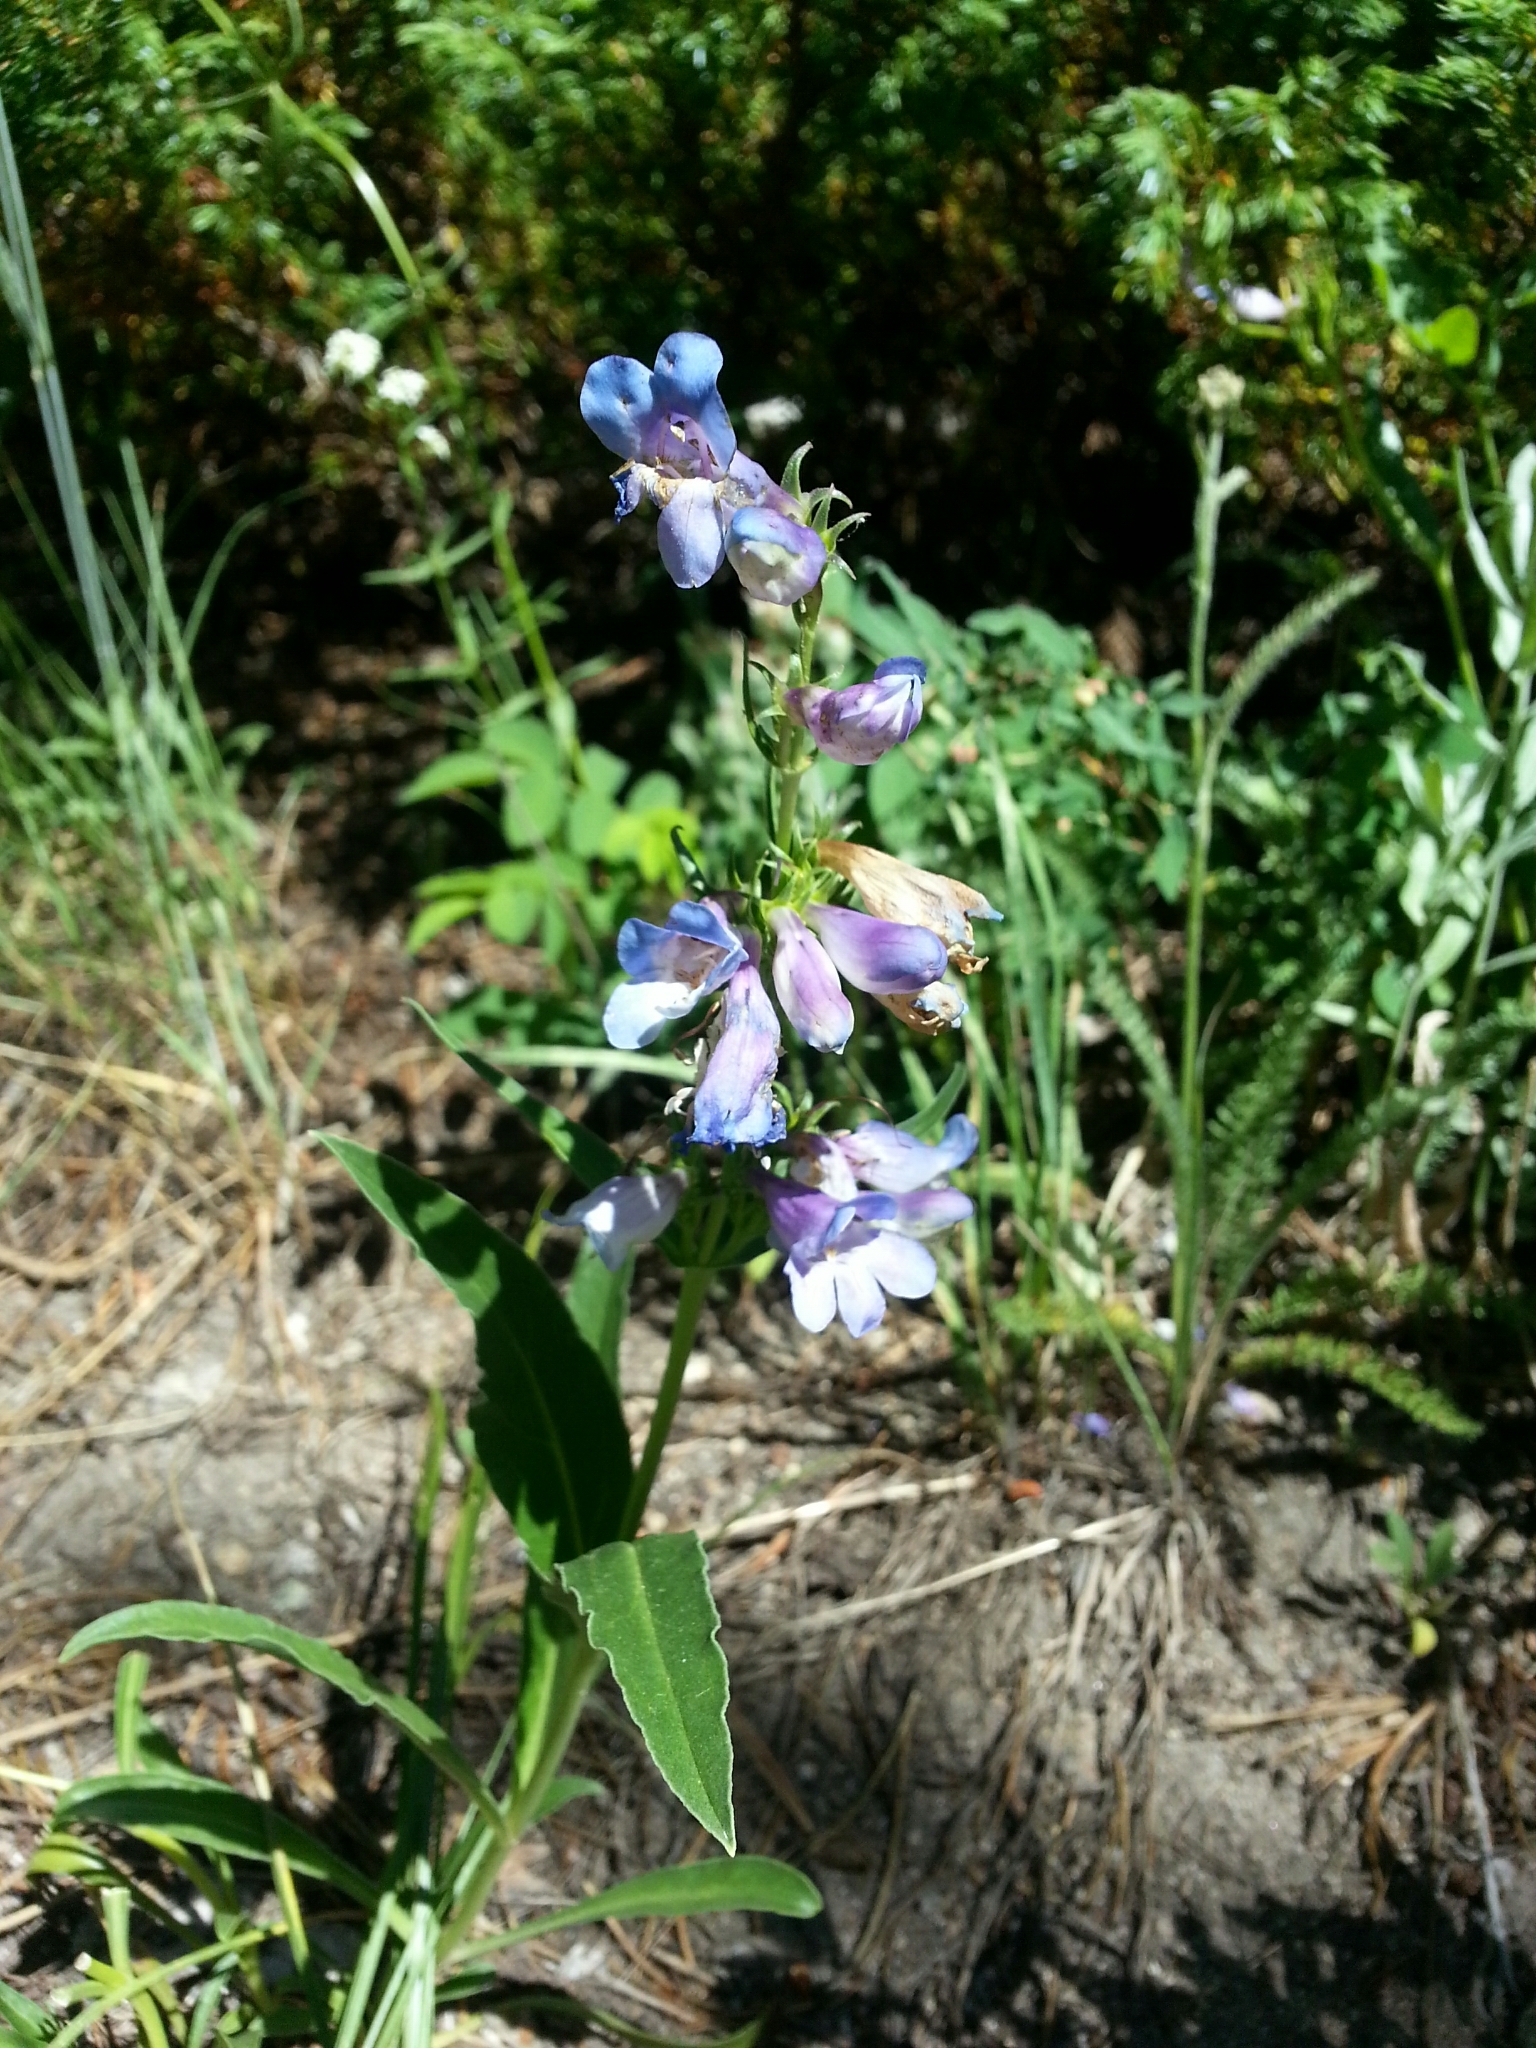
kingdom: Plantae
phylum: Tracheophyta
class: Magnoliopsida
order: Lamiales
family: Plantaginaceae
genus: Penstemon
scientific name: Penstemon virens
